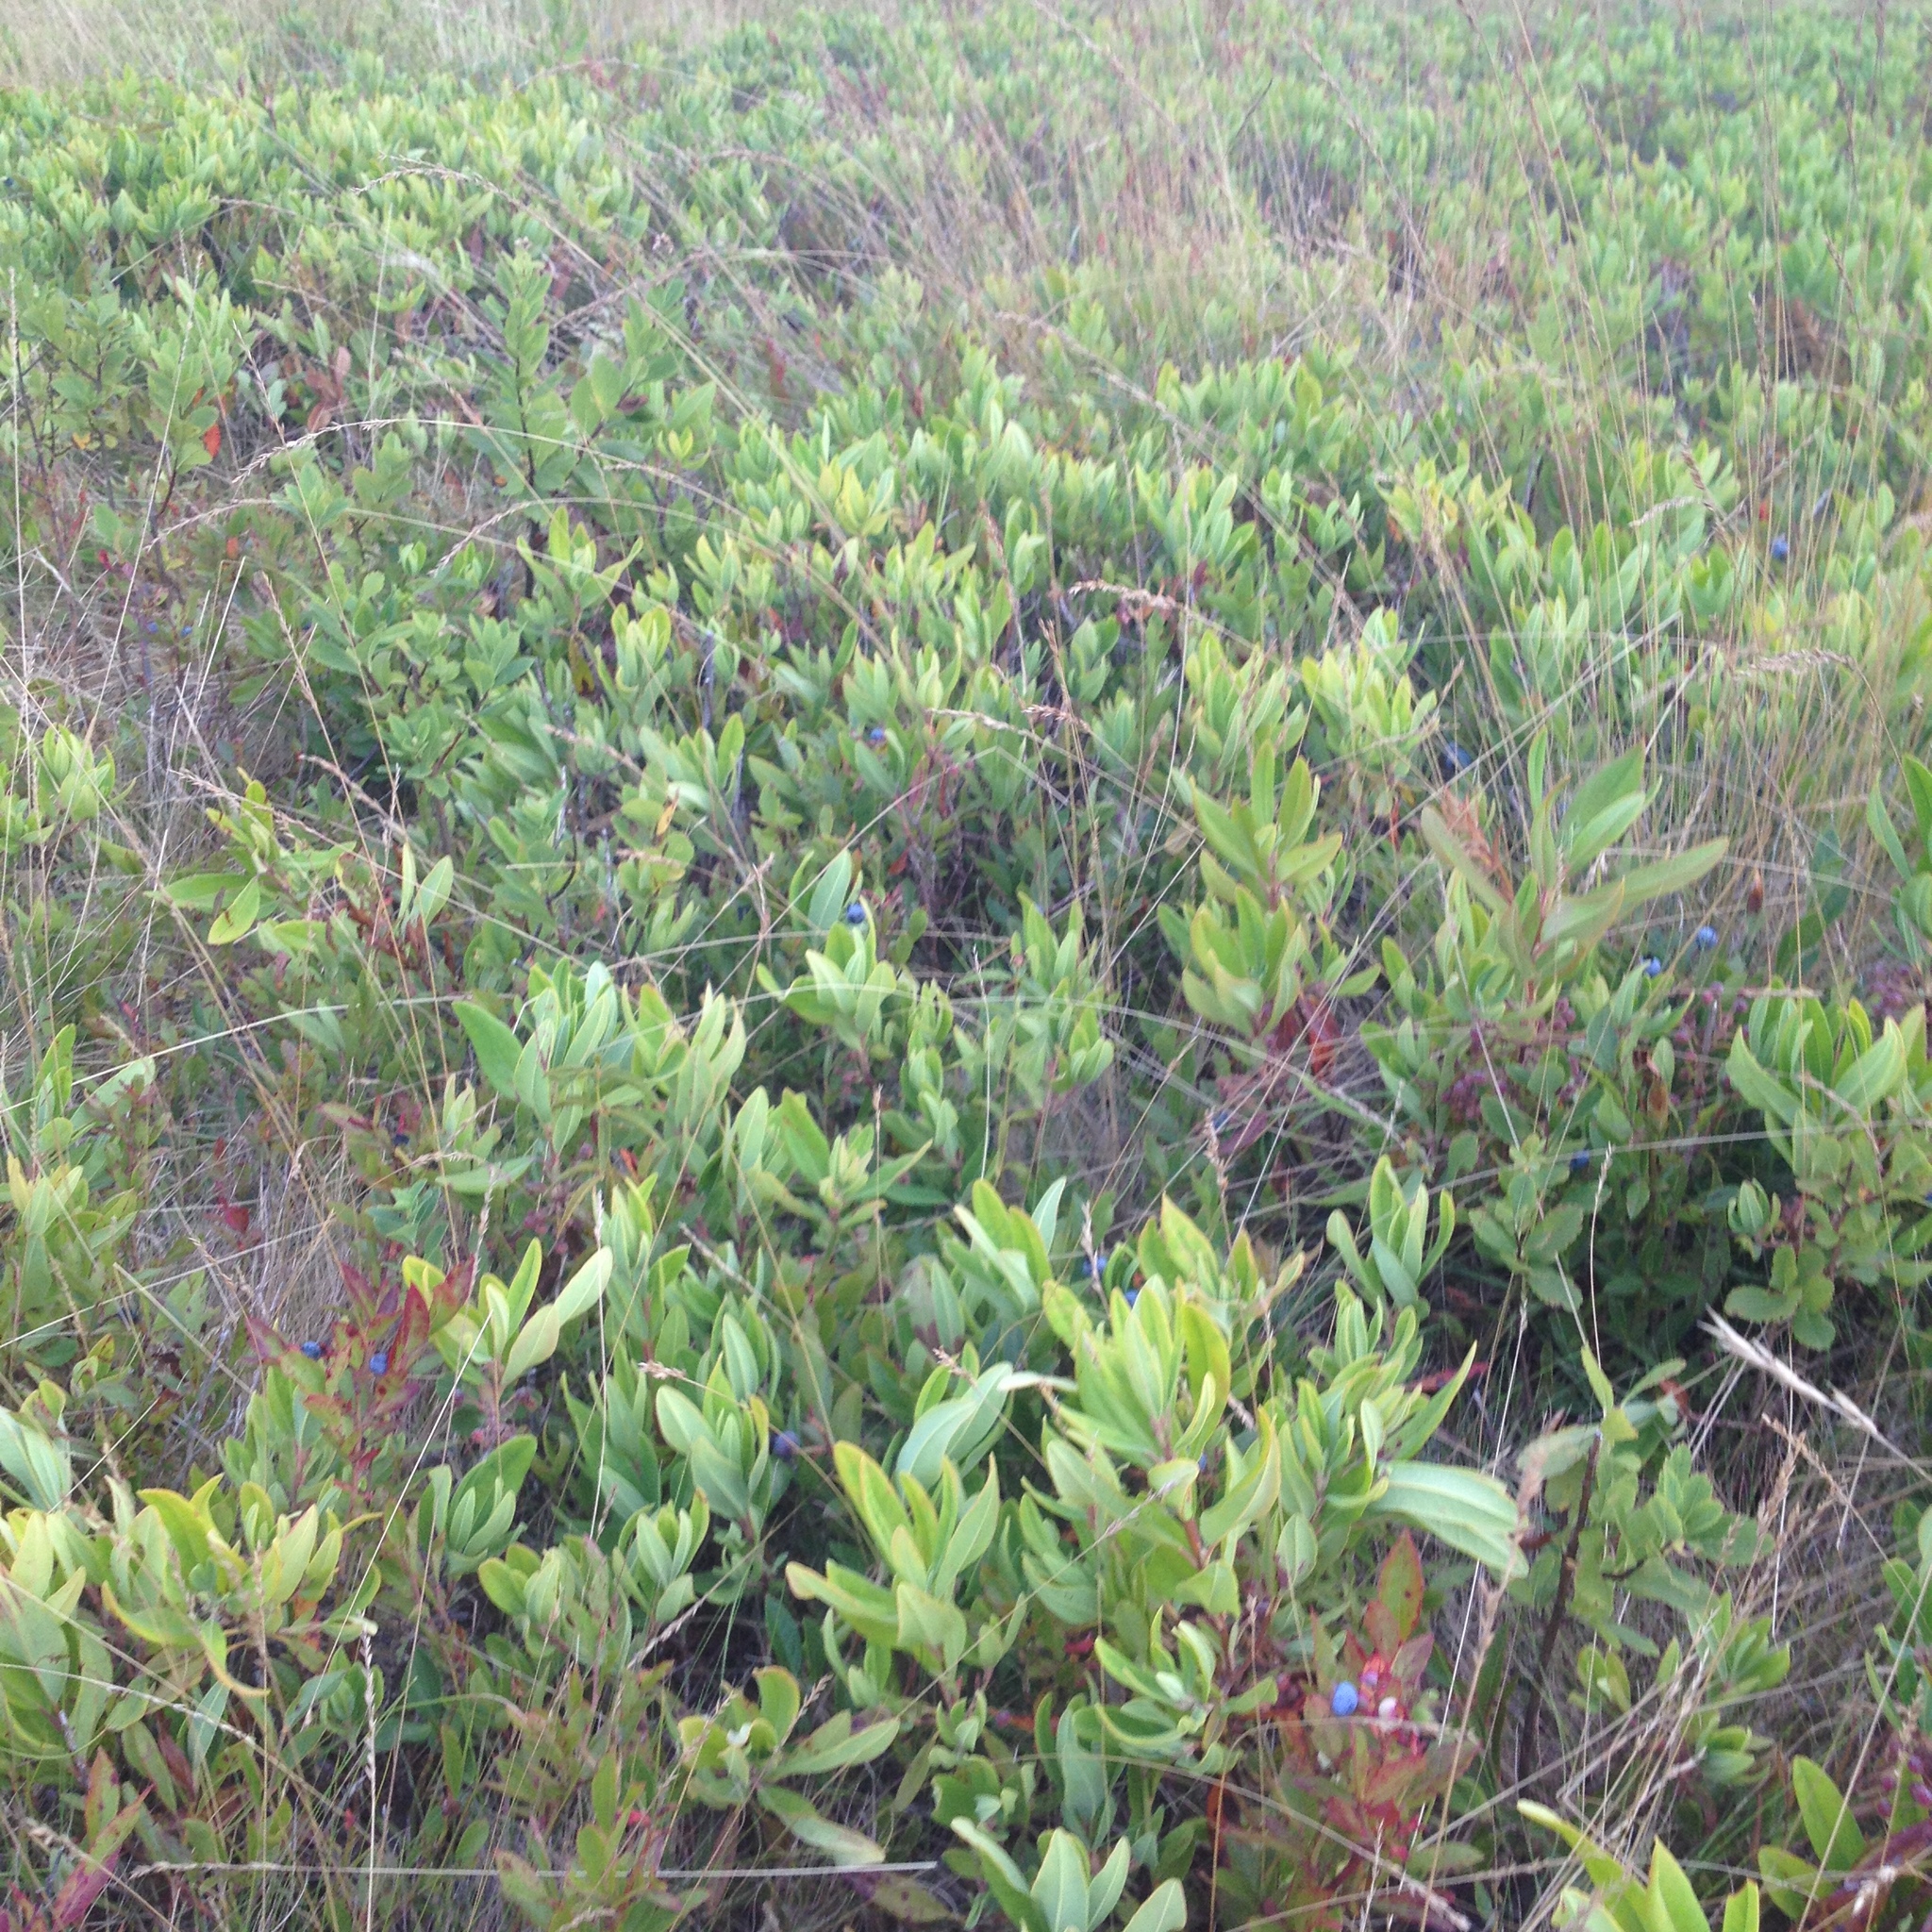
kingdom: Plantae
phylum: Tracheophyta
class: Magnoliopsida
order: Ericales
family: Ericaceae
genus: Vaccinium
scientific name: Vaccinium angustifolium
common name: Early lowbush blueberry
